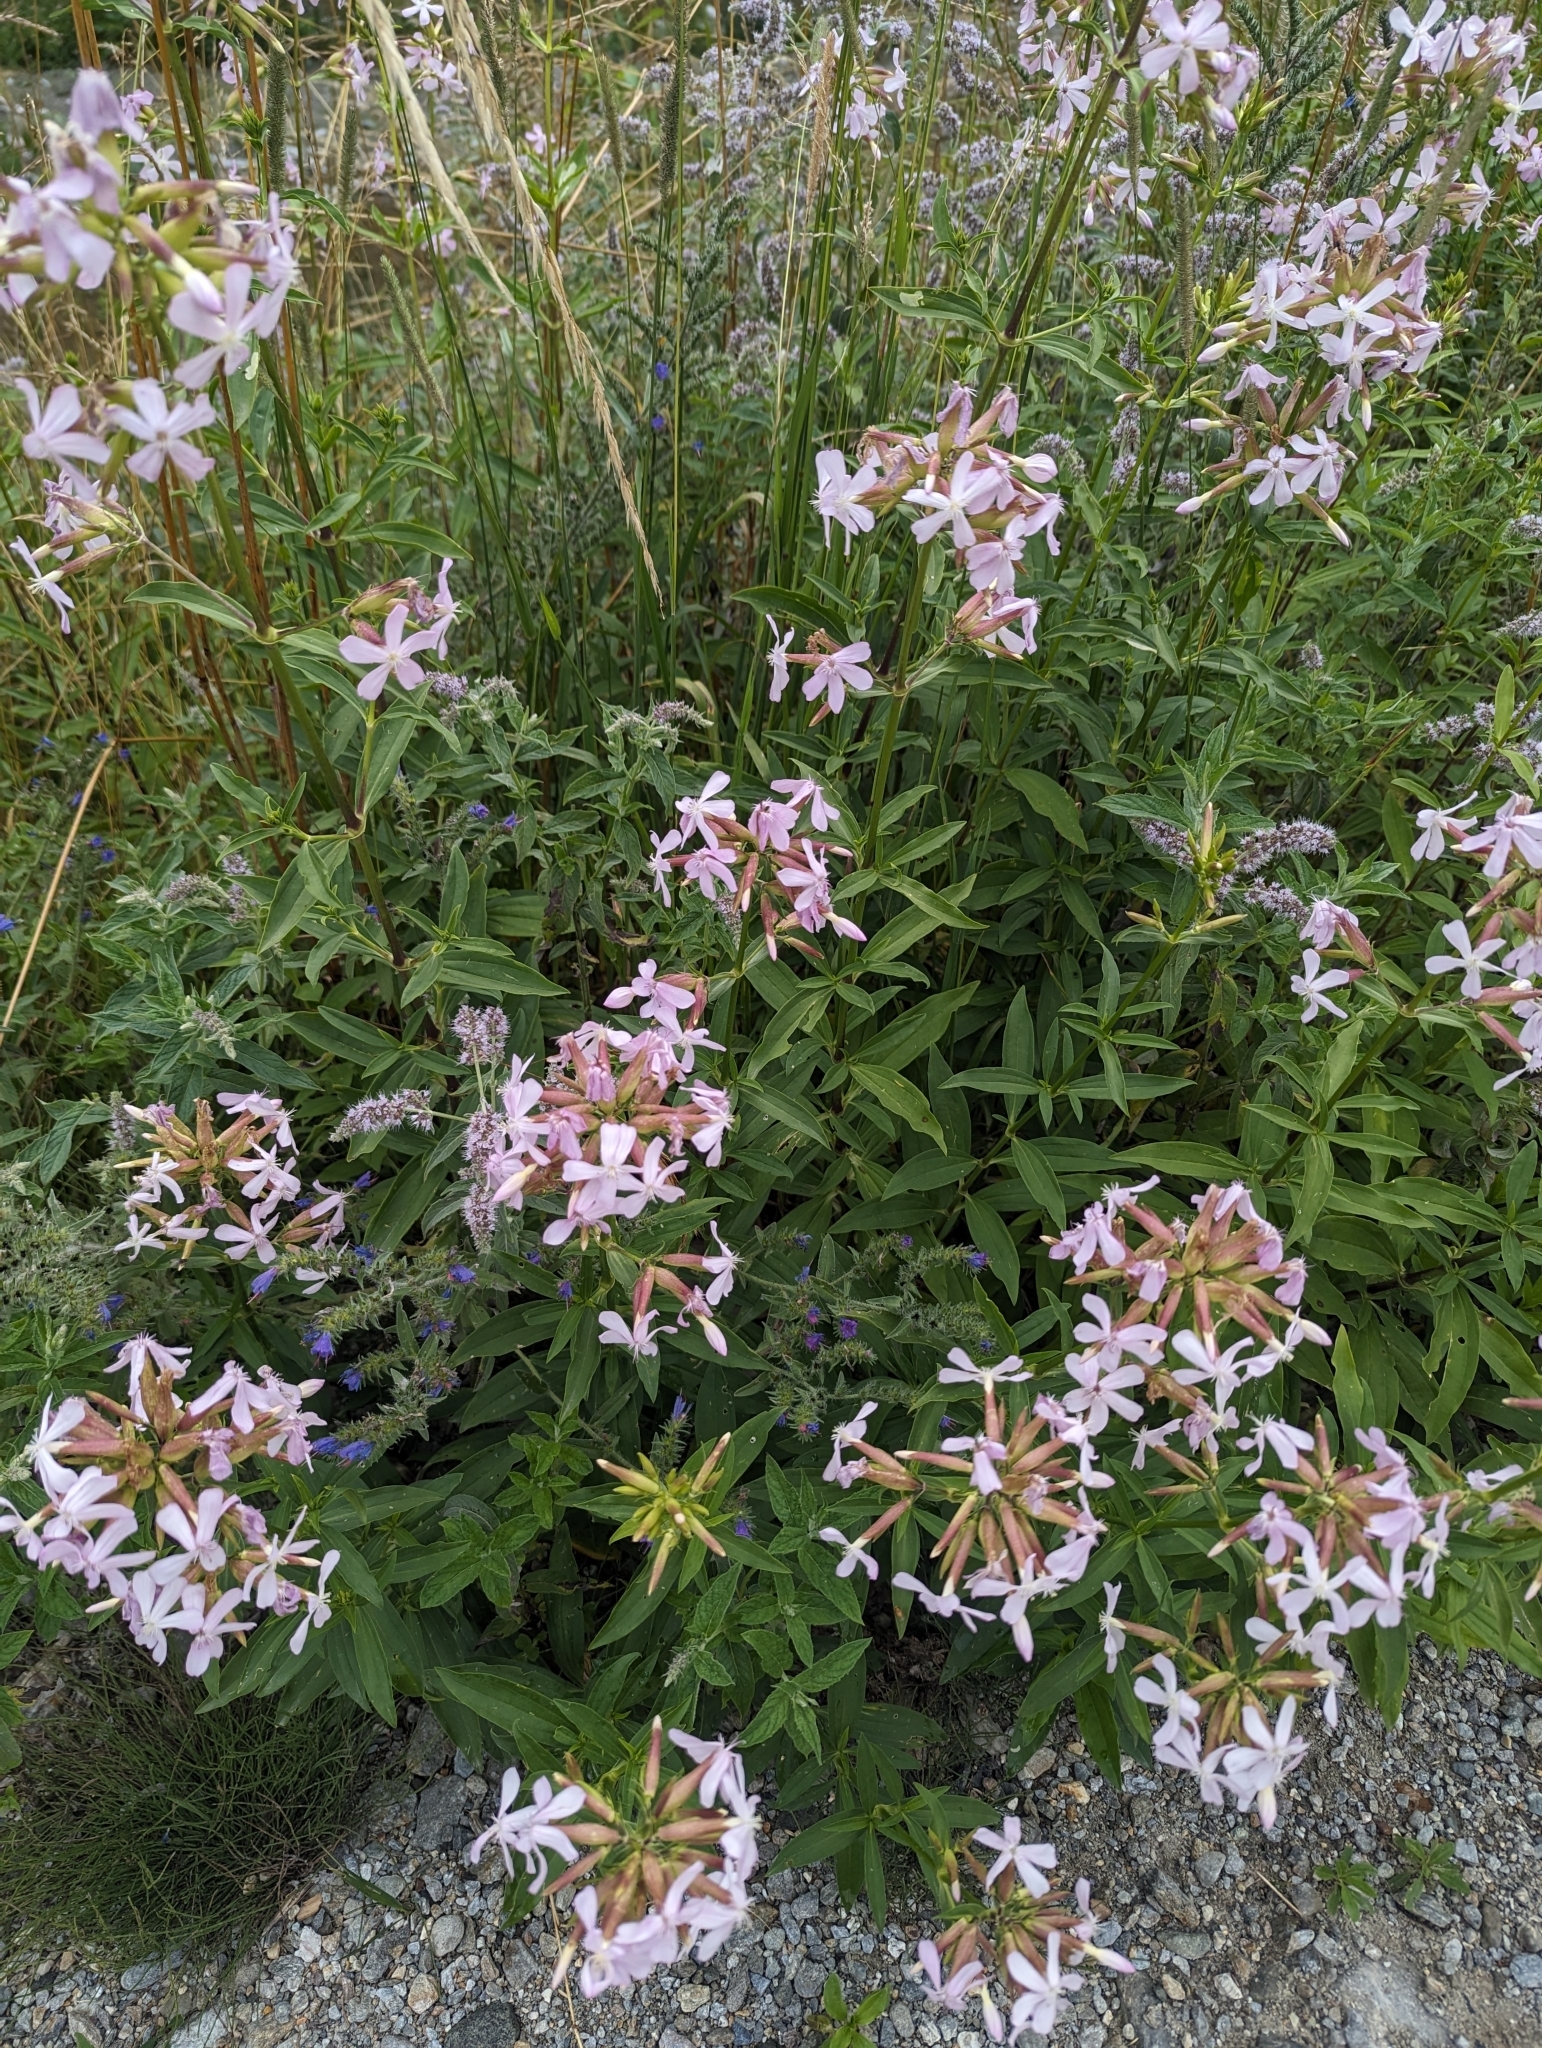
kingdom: Plantae
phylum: Tracheophyta
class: Magnoliopsida
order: Caryophyllales
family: Caryophyllaceae
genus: Saponaria
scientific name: Saponaria officinalis
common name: Soapwort
